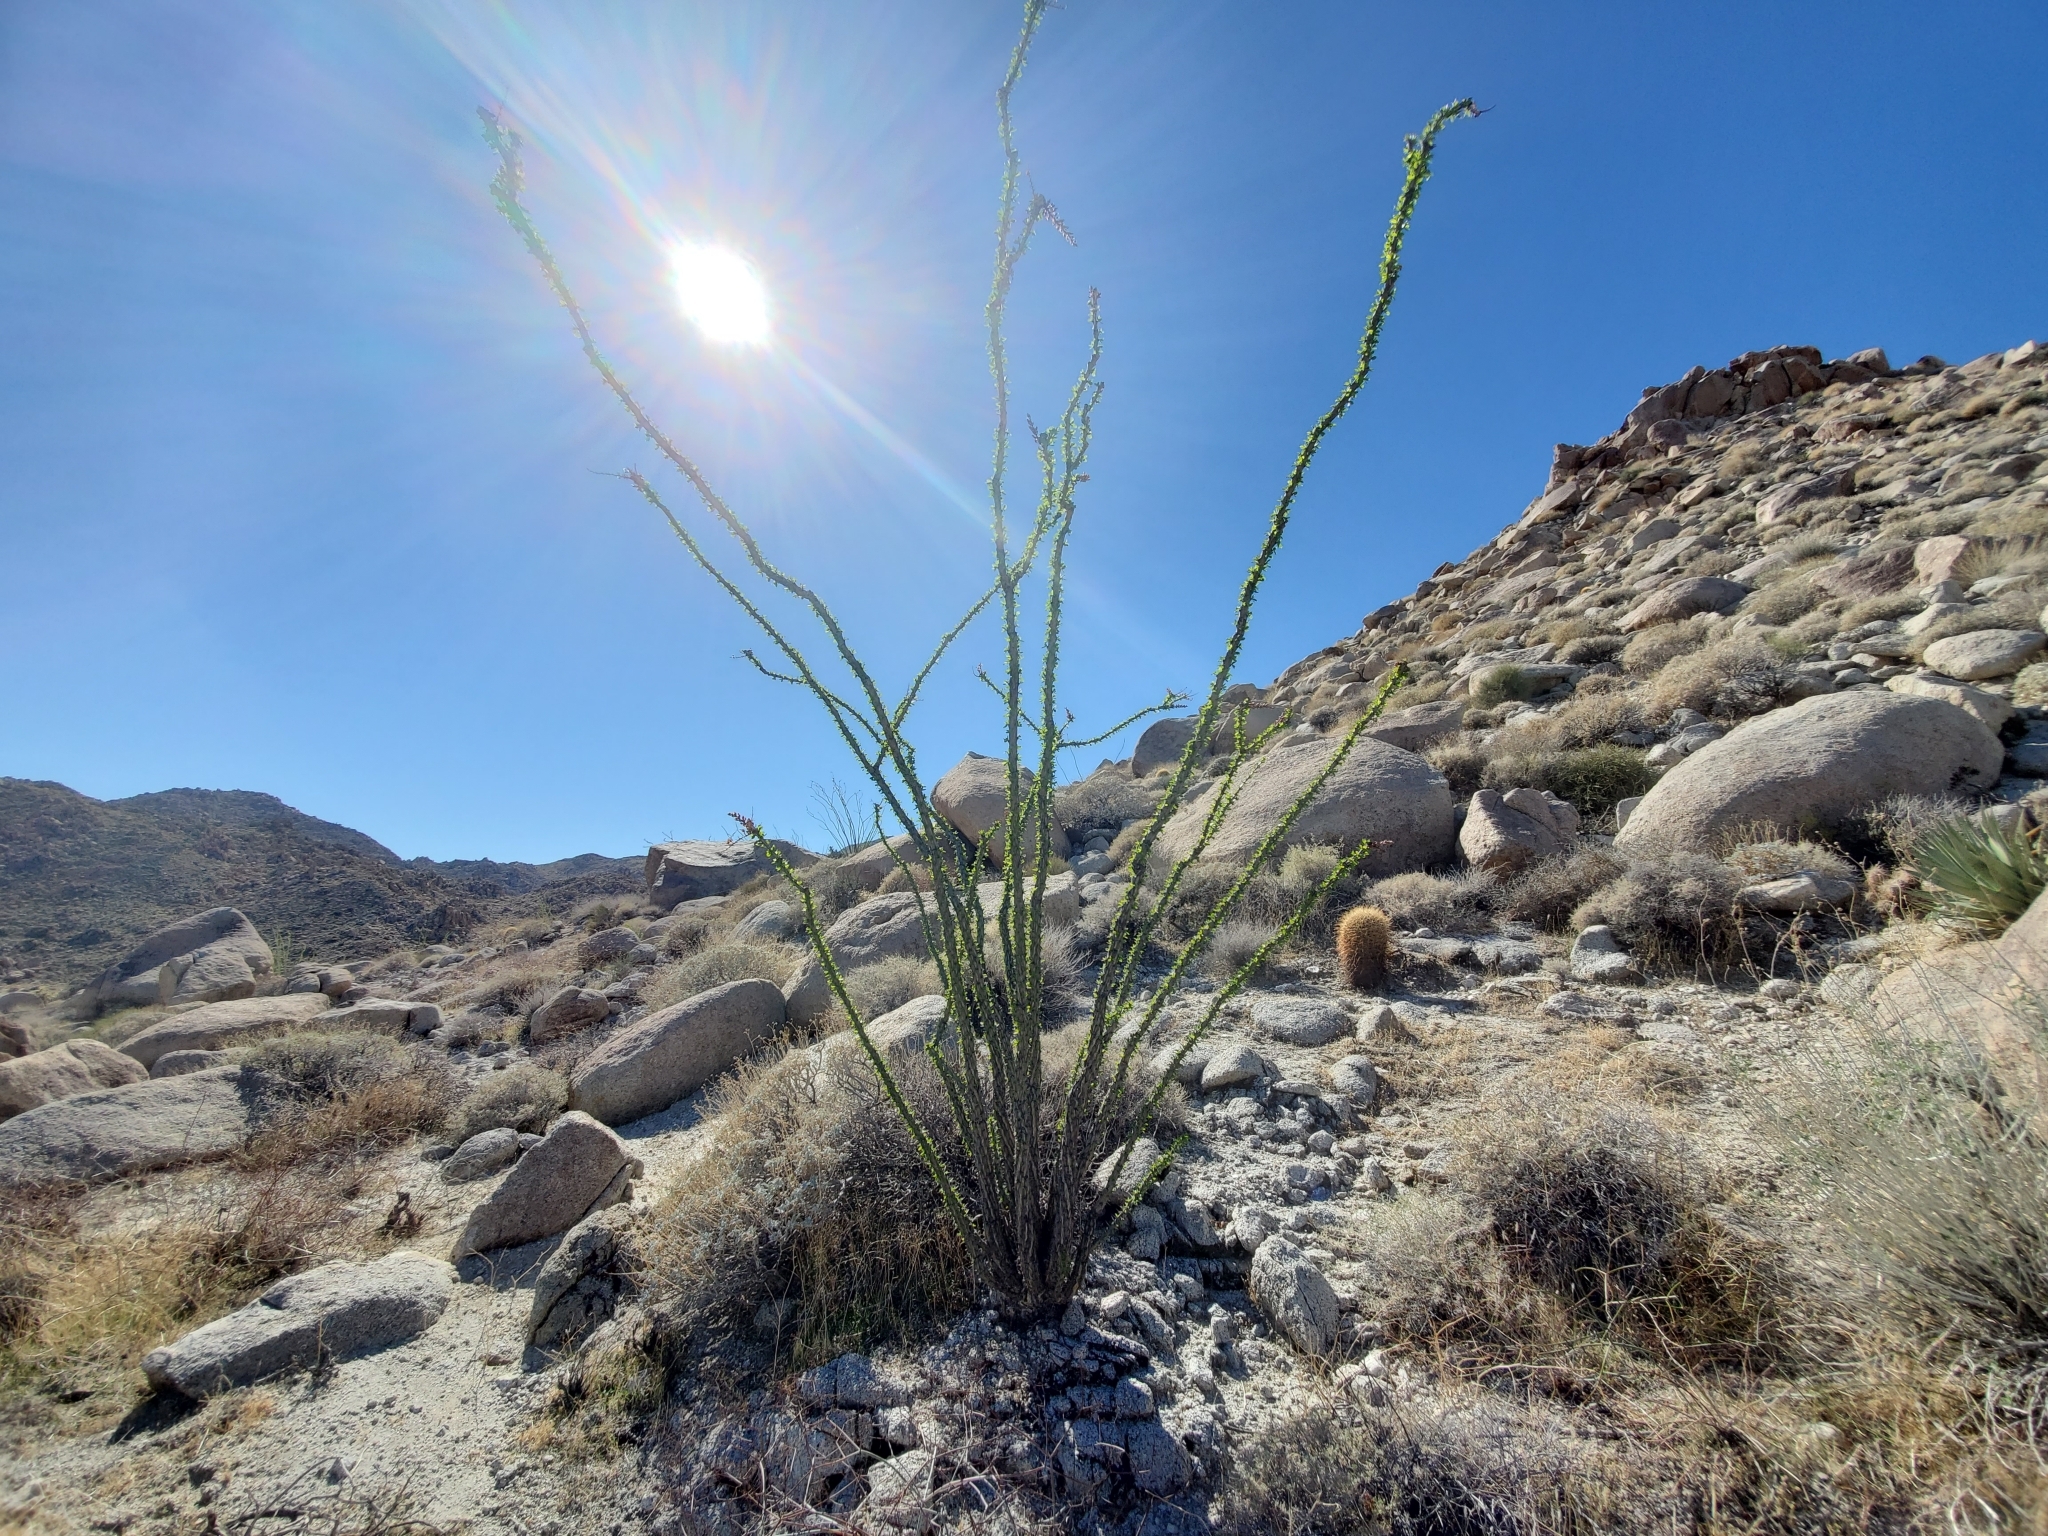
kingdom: Plantae
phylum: Tracheophyta
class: Magnoliopsida
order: Ericales
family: Fouquieriaceae
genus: Fouquieria
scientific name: Fouquieria splendens
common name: Vine-cactus
